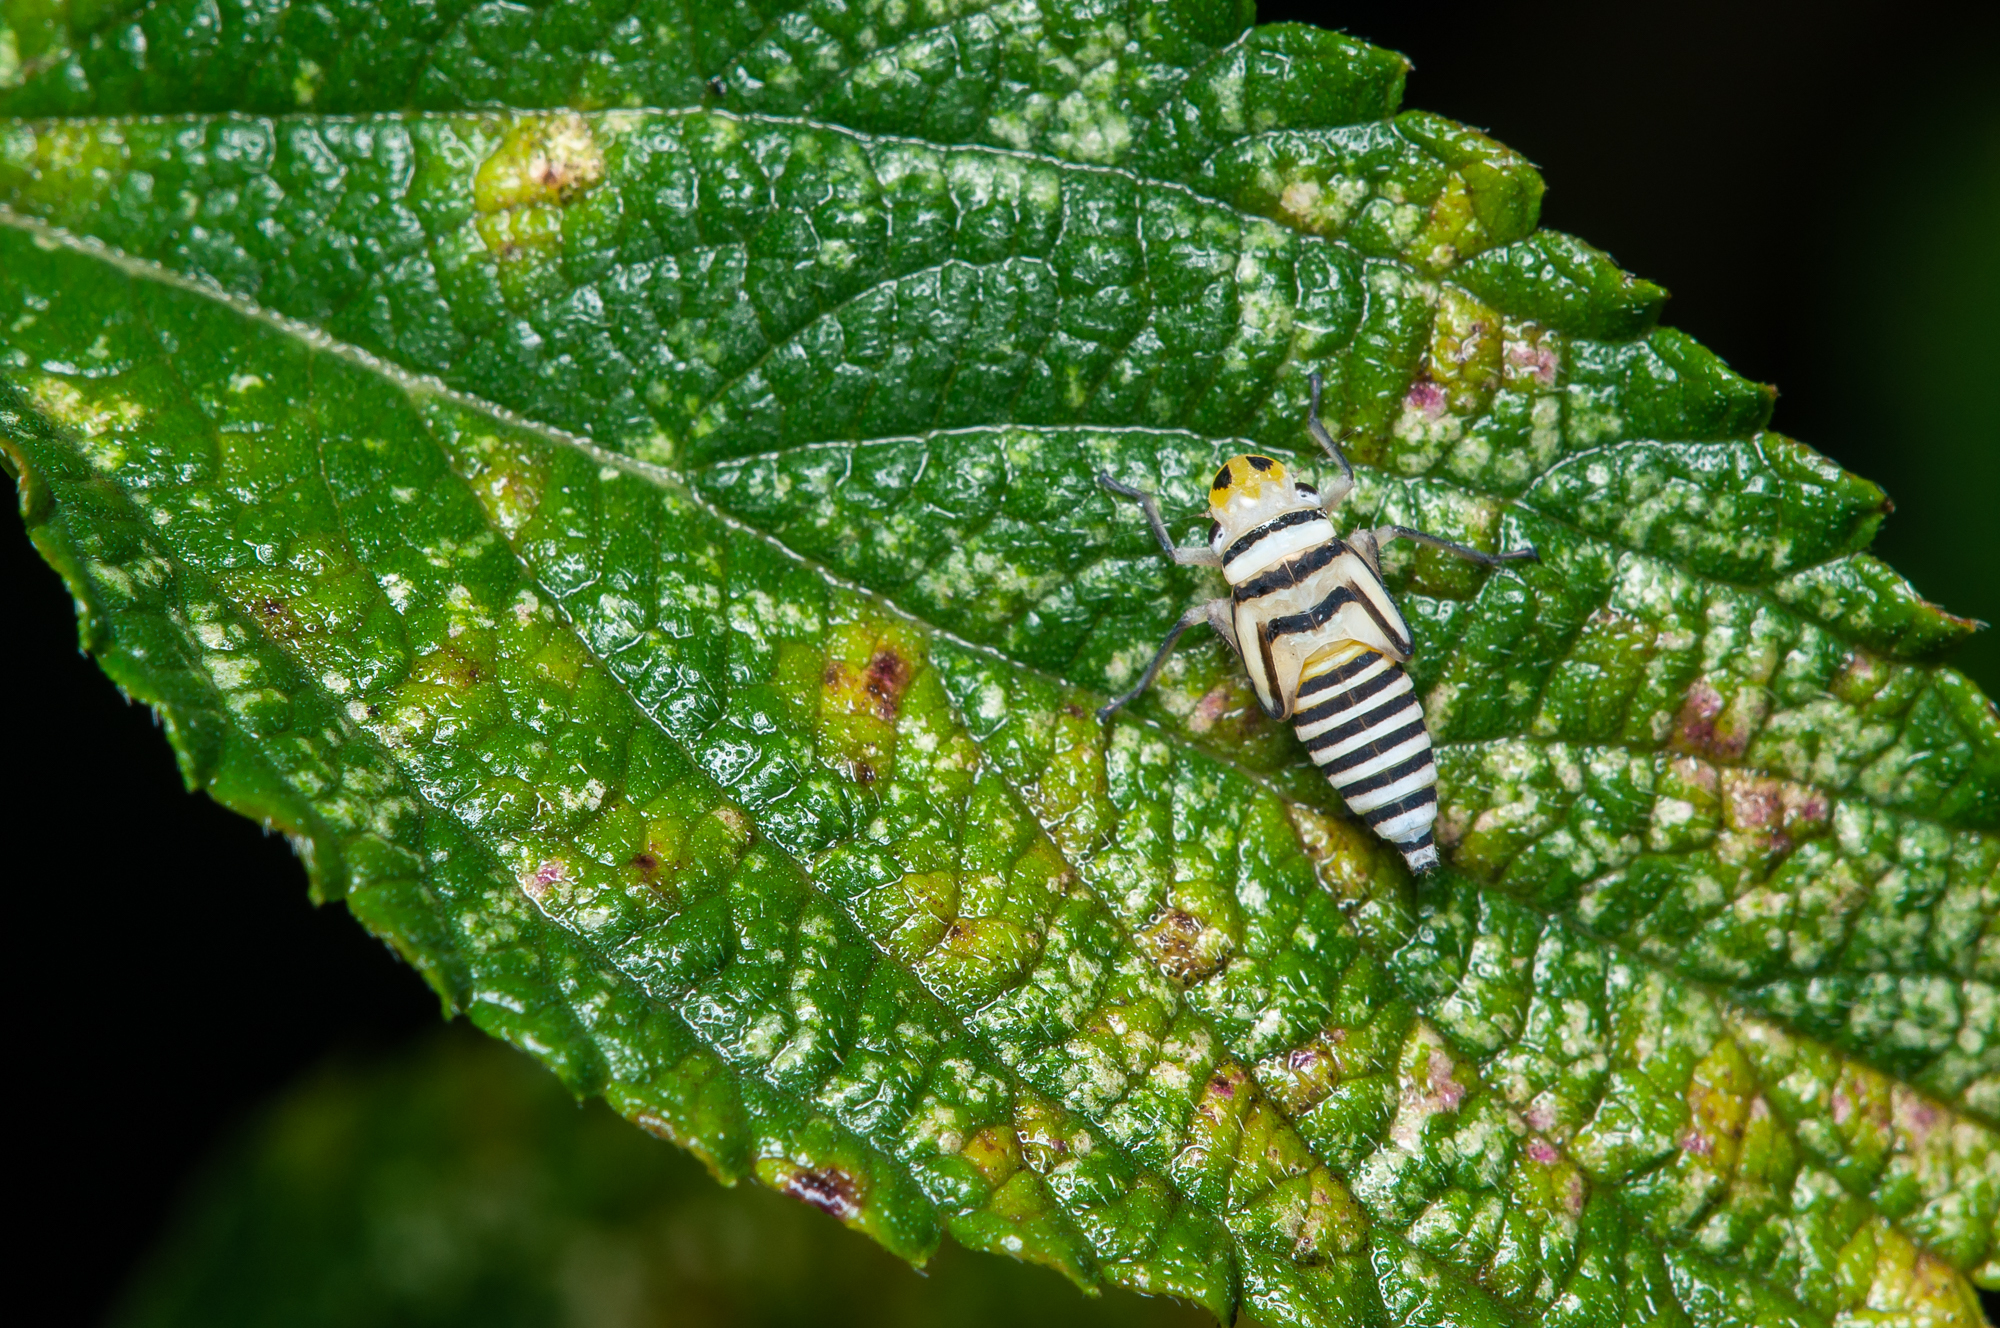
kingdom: Animalia
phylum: Arthropoda
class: Insecta
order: Hemiptera
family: Cicadellidae
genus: Agrosoma
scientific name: Agrosoma placetis
